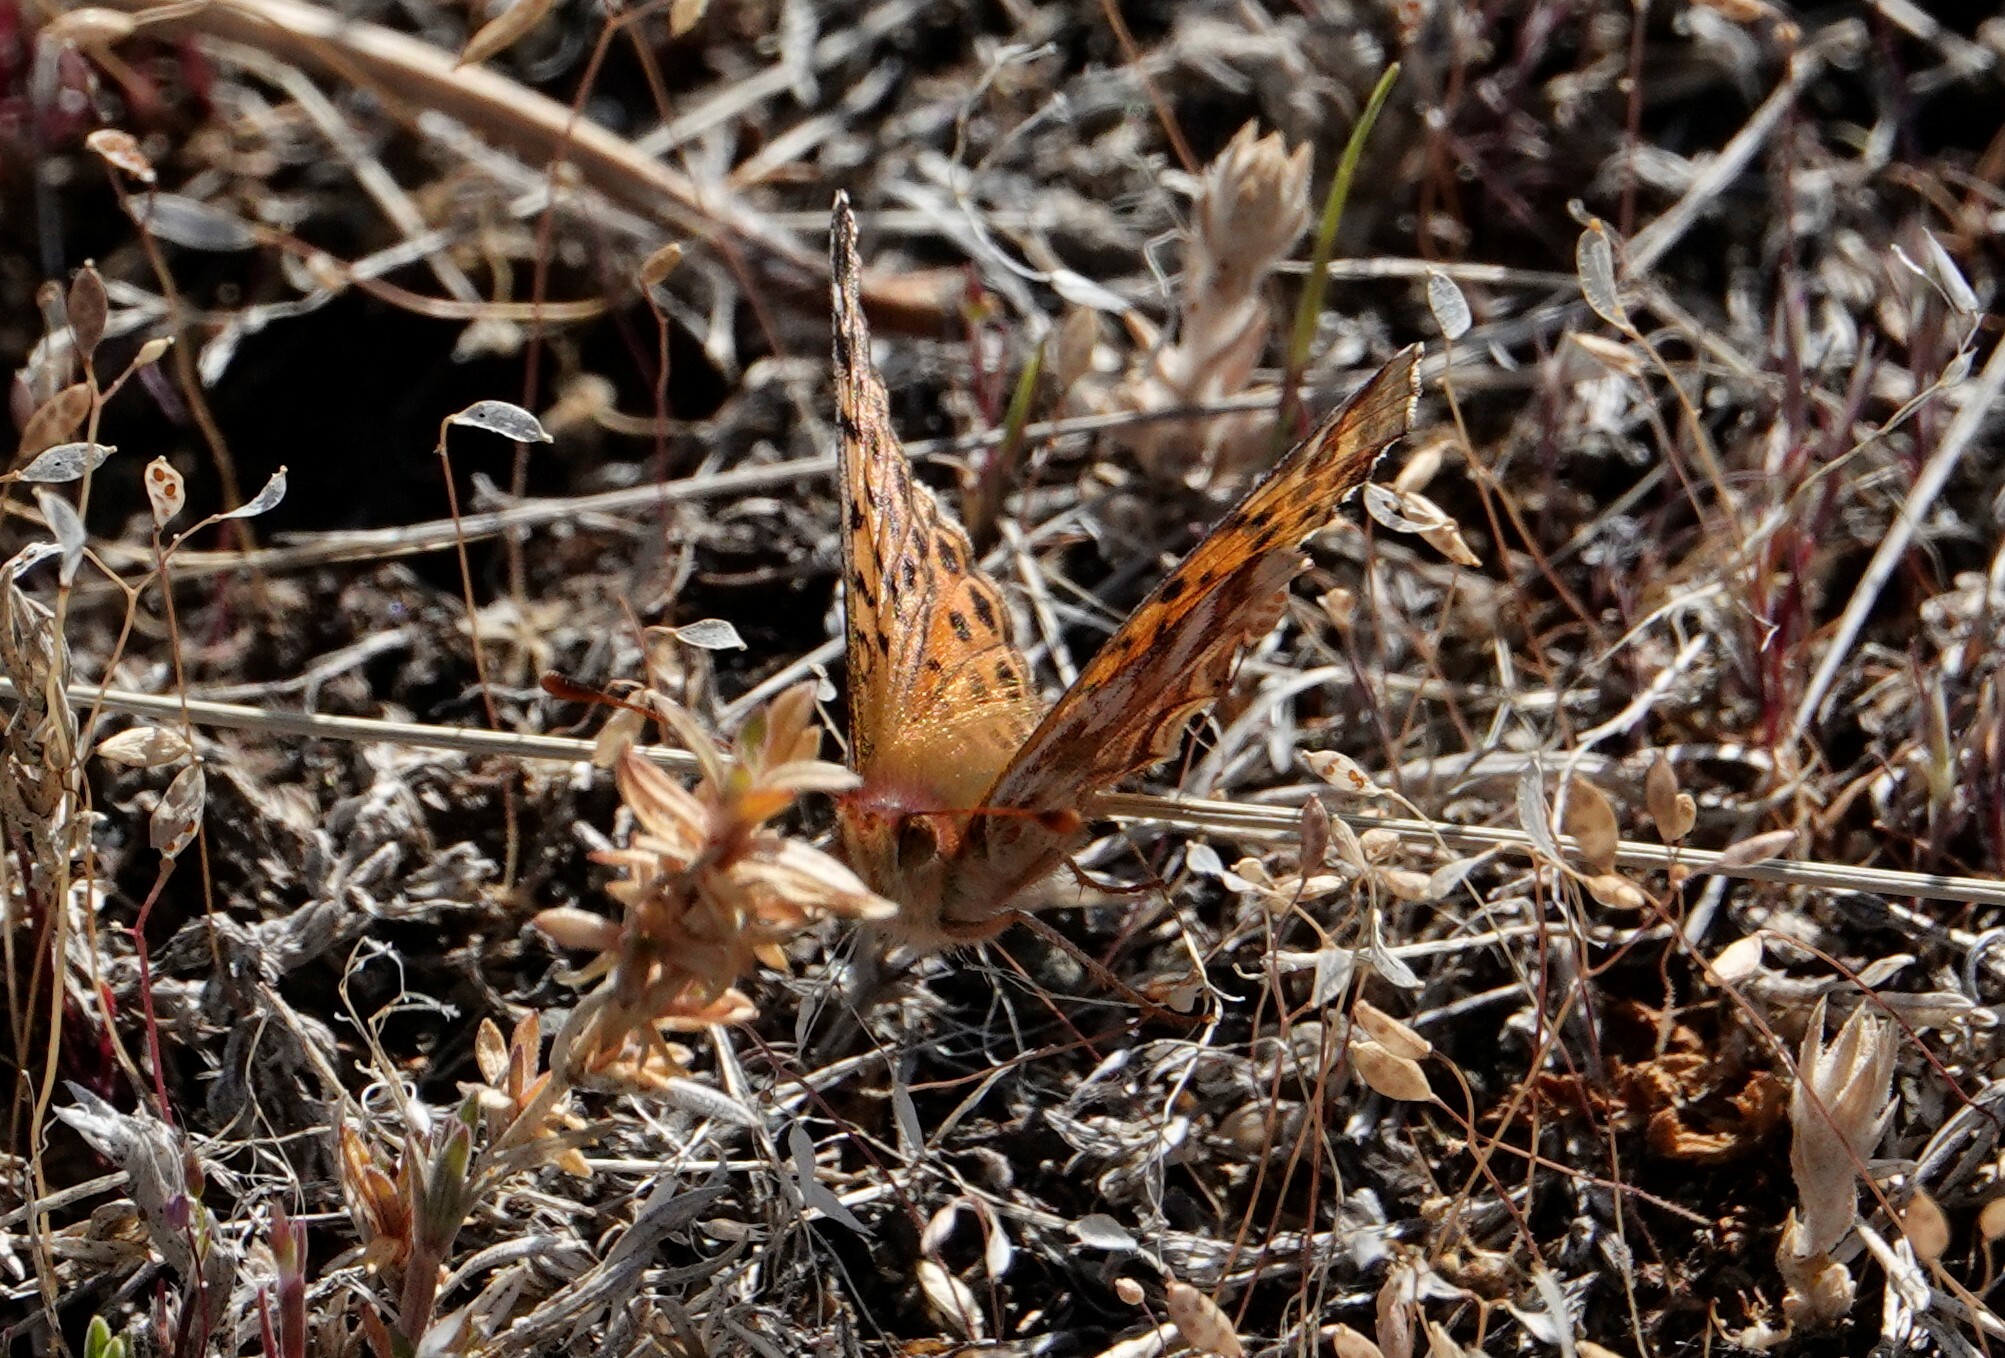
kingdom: Animalia
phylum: Arthropoda
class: Insecta
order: Lepidoptera
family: Nymphalidae
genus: Issoria
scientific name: Issoria Yramea cytheris
